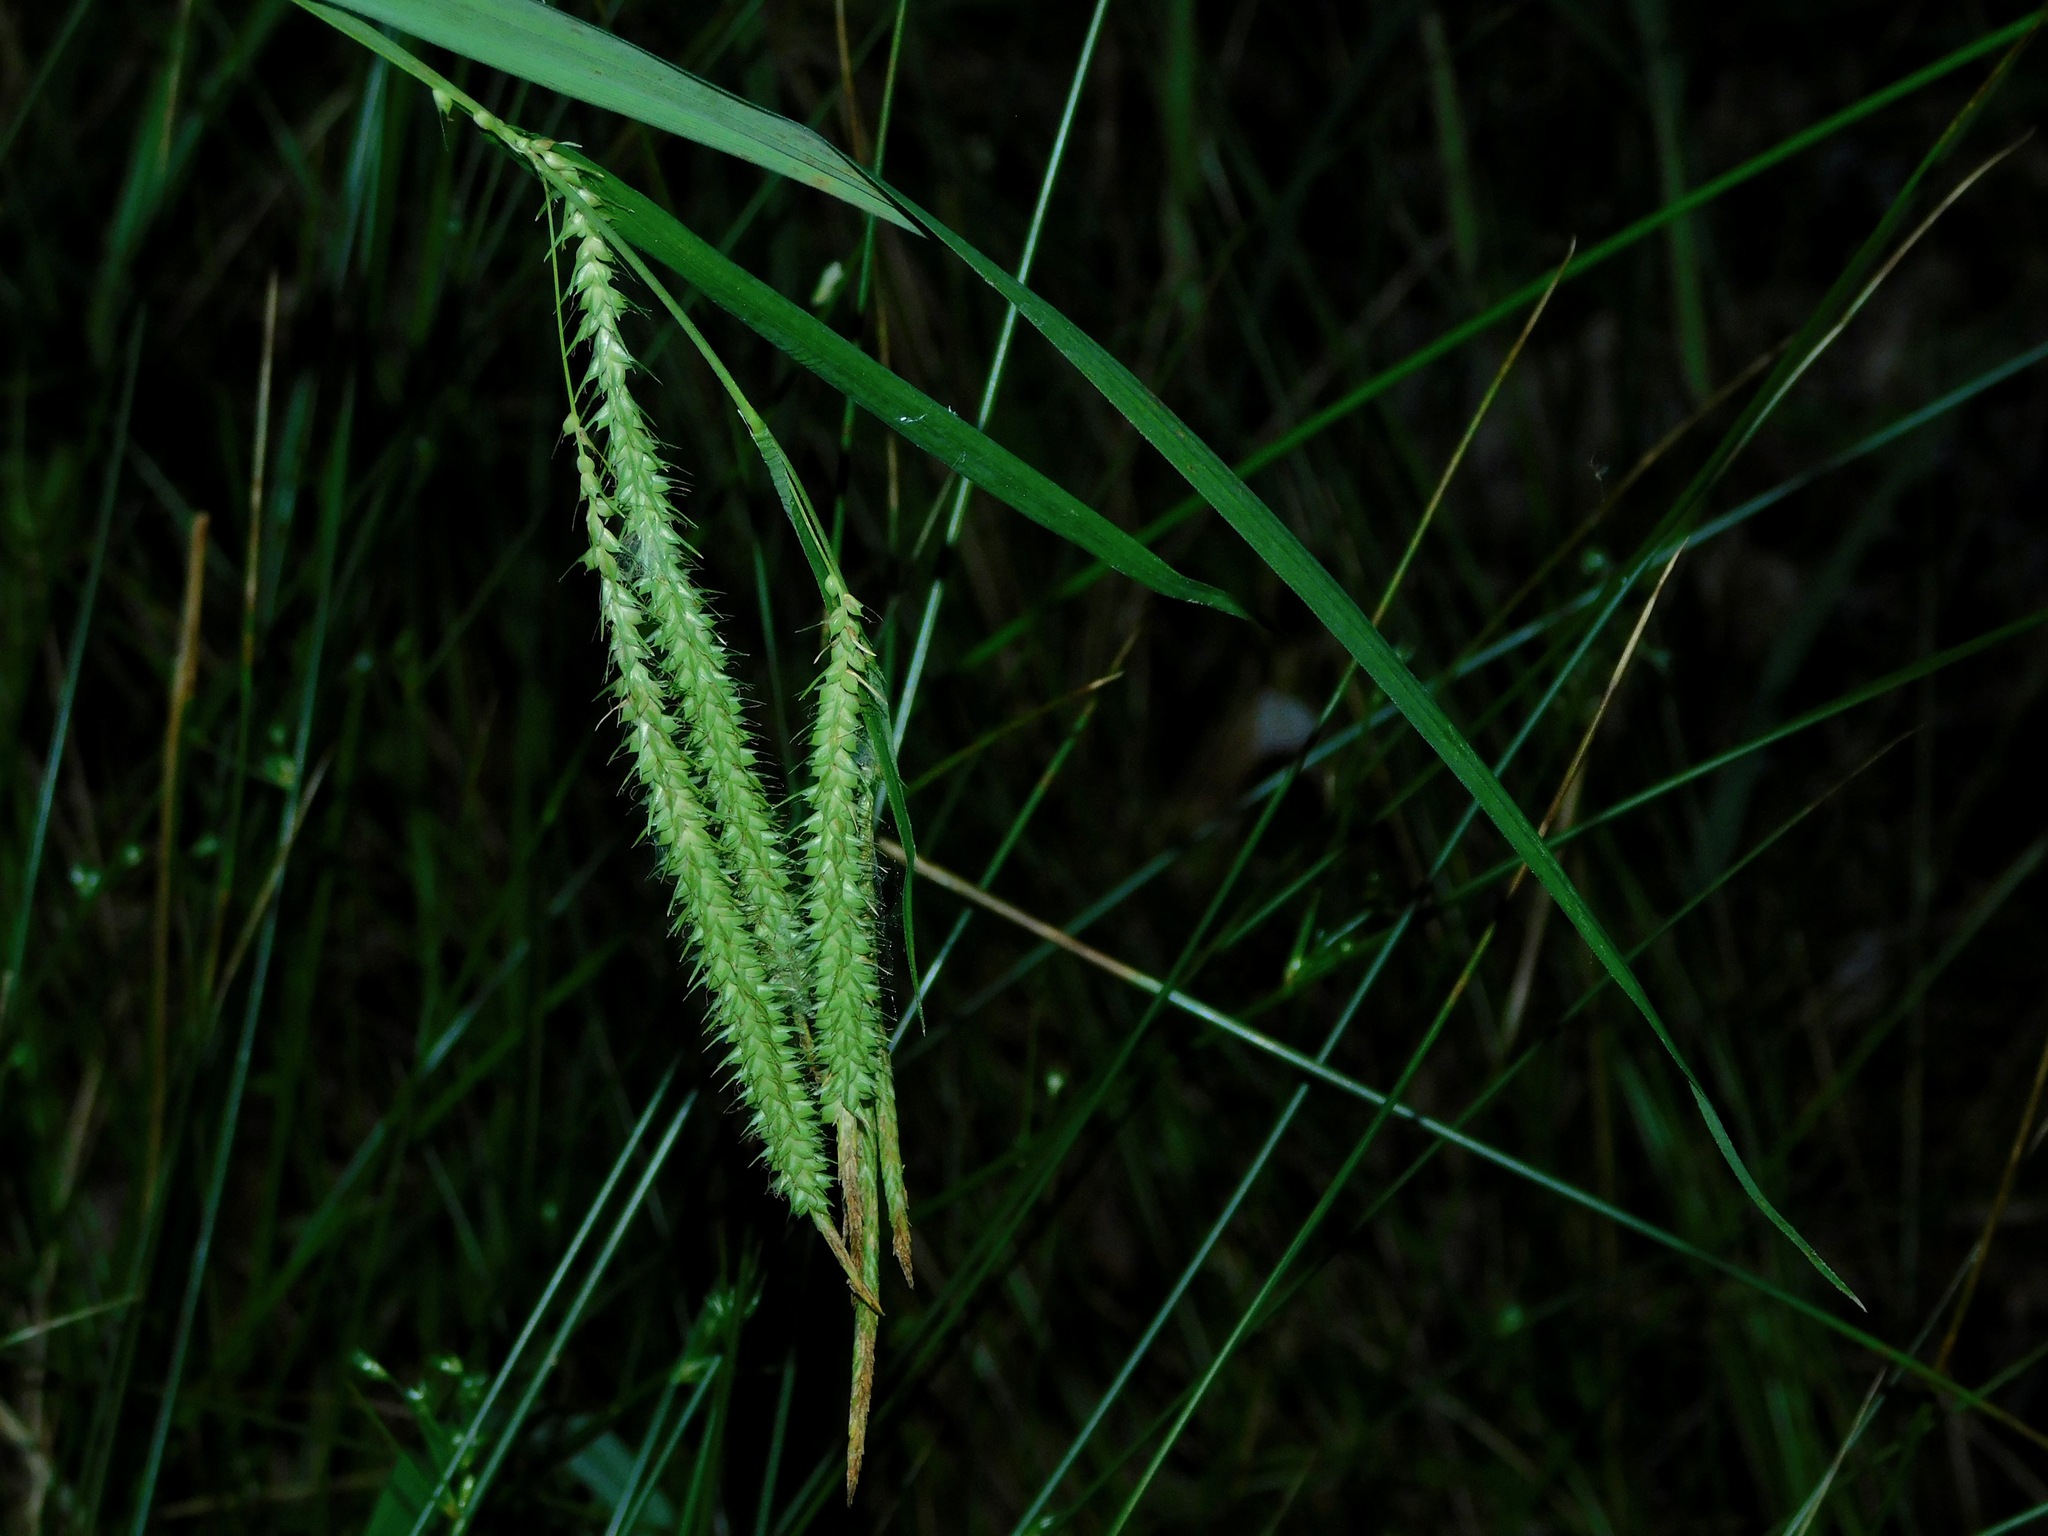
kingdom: Plantae
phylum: Tracheophyta
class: Liliopsida
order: Poales
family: Cyperaceae
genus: Carex
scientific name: Carex crinita
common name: Fringed sedge
